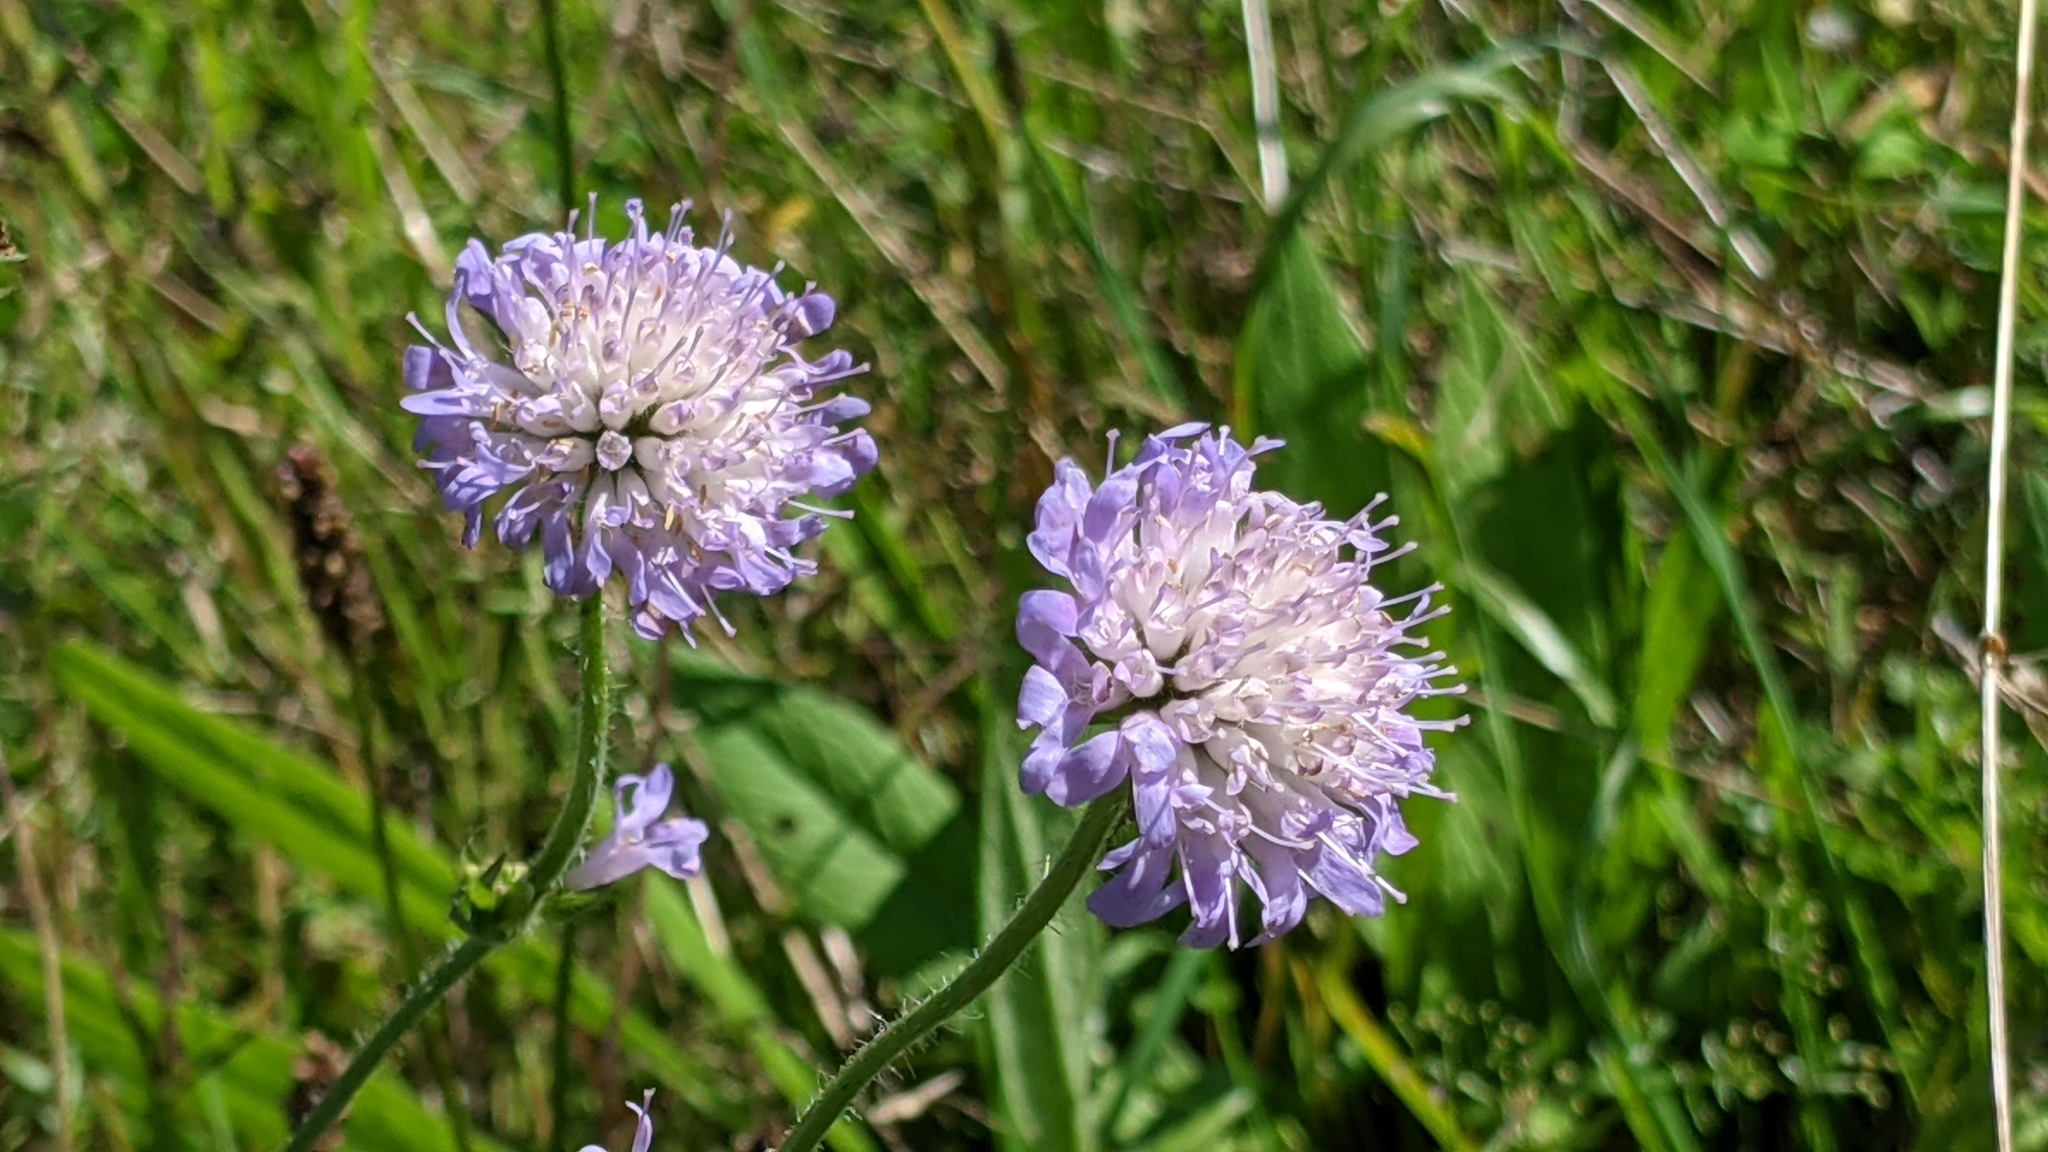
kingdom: Plantae
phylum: Tracheophyta
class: Magnoliopsida
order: Dipsacales
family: Caprifoliaceae
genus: Knautia
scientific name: Knautia arvensis
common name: Field scabiosa
